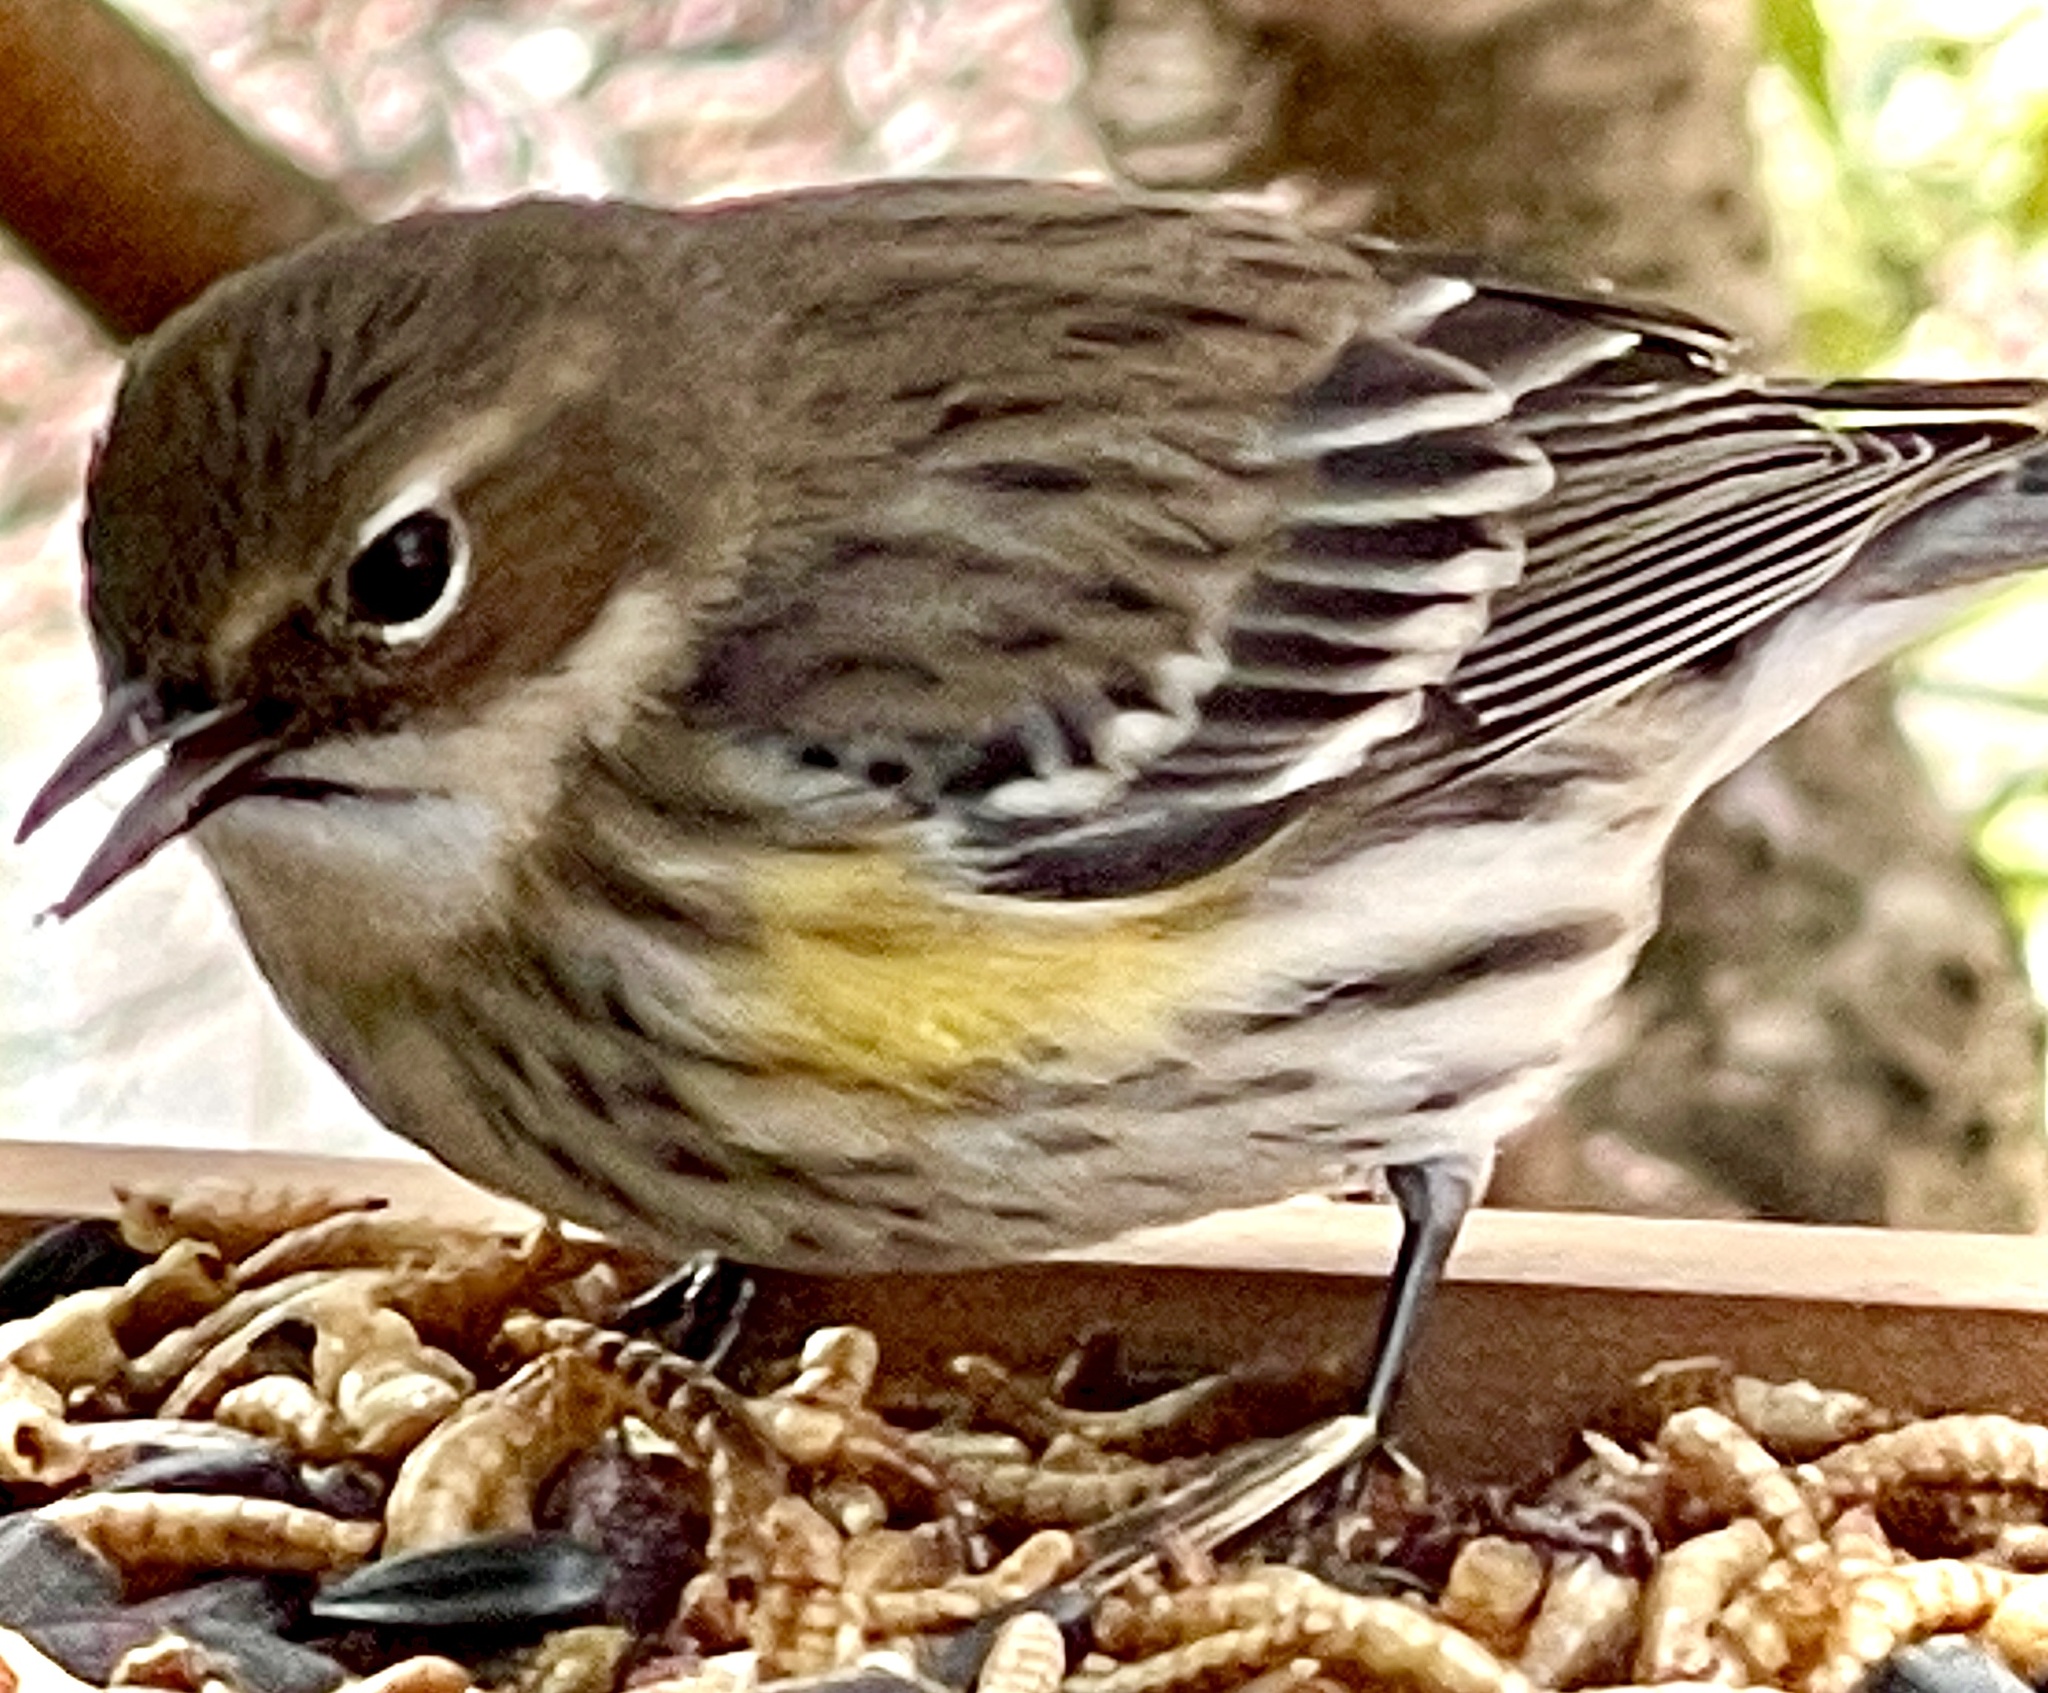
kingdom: Animalia
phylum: Chordata
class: Aves
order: Passeriformes
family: Parulidae
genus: Setophaga
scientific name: Setophaga coronata
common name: Myrtle warbler
